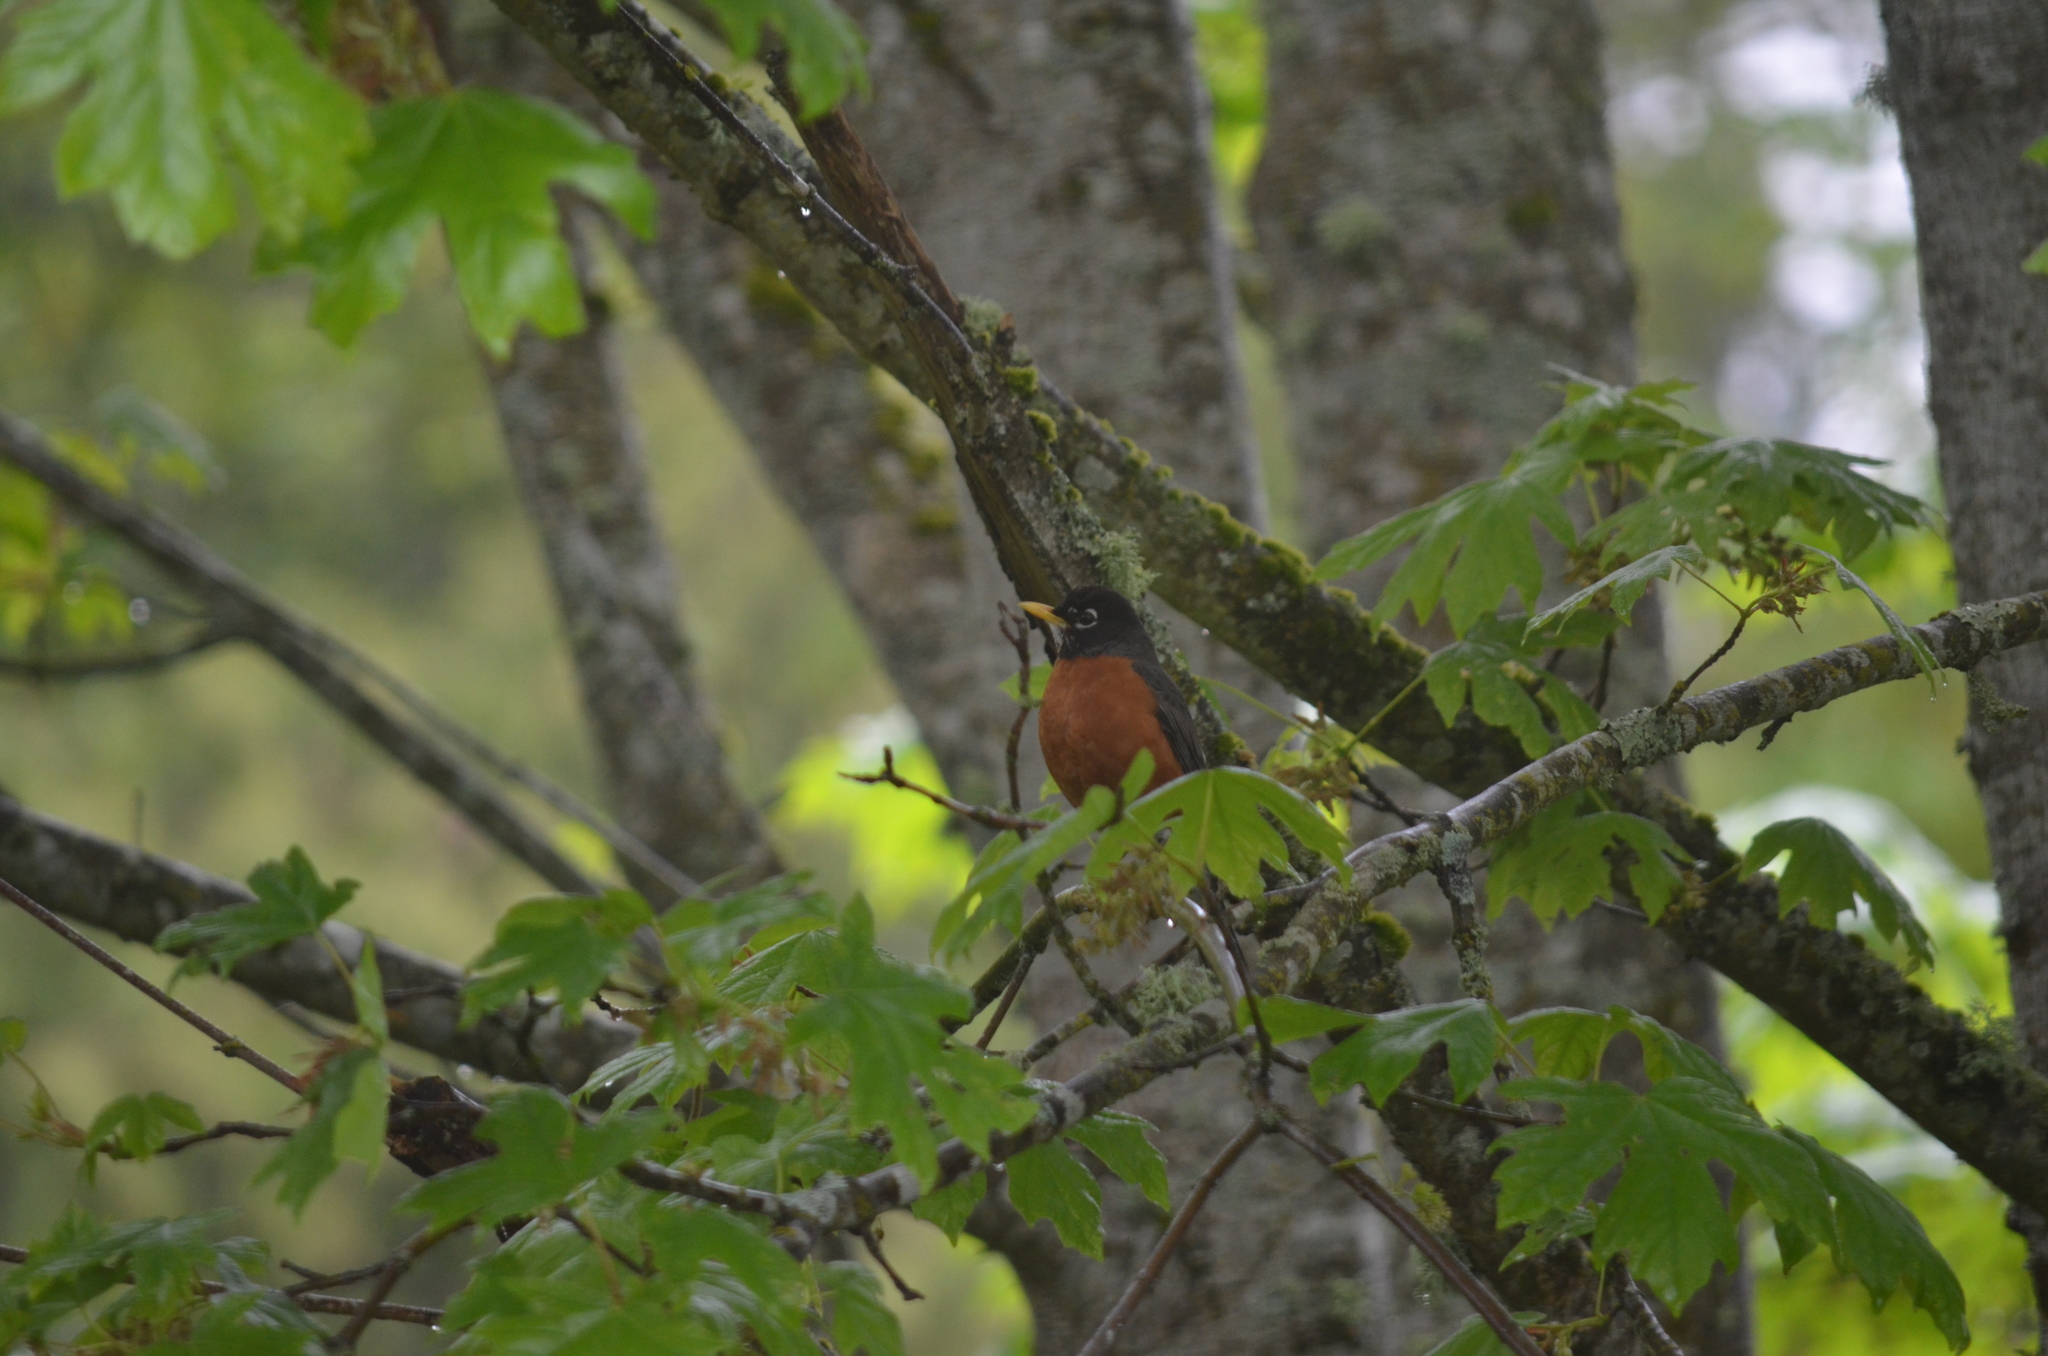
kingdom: Animalia
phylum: Chordata
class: Aves
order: Passeriformes
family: Turdidae
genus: Turdus
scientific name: Turdus migratorius
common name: American robin
